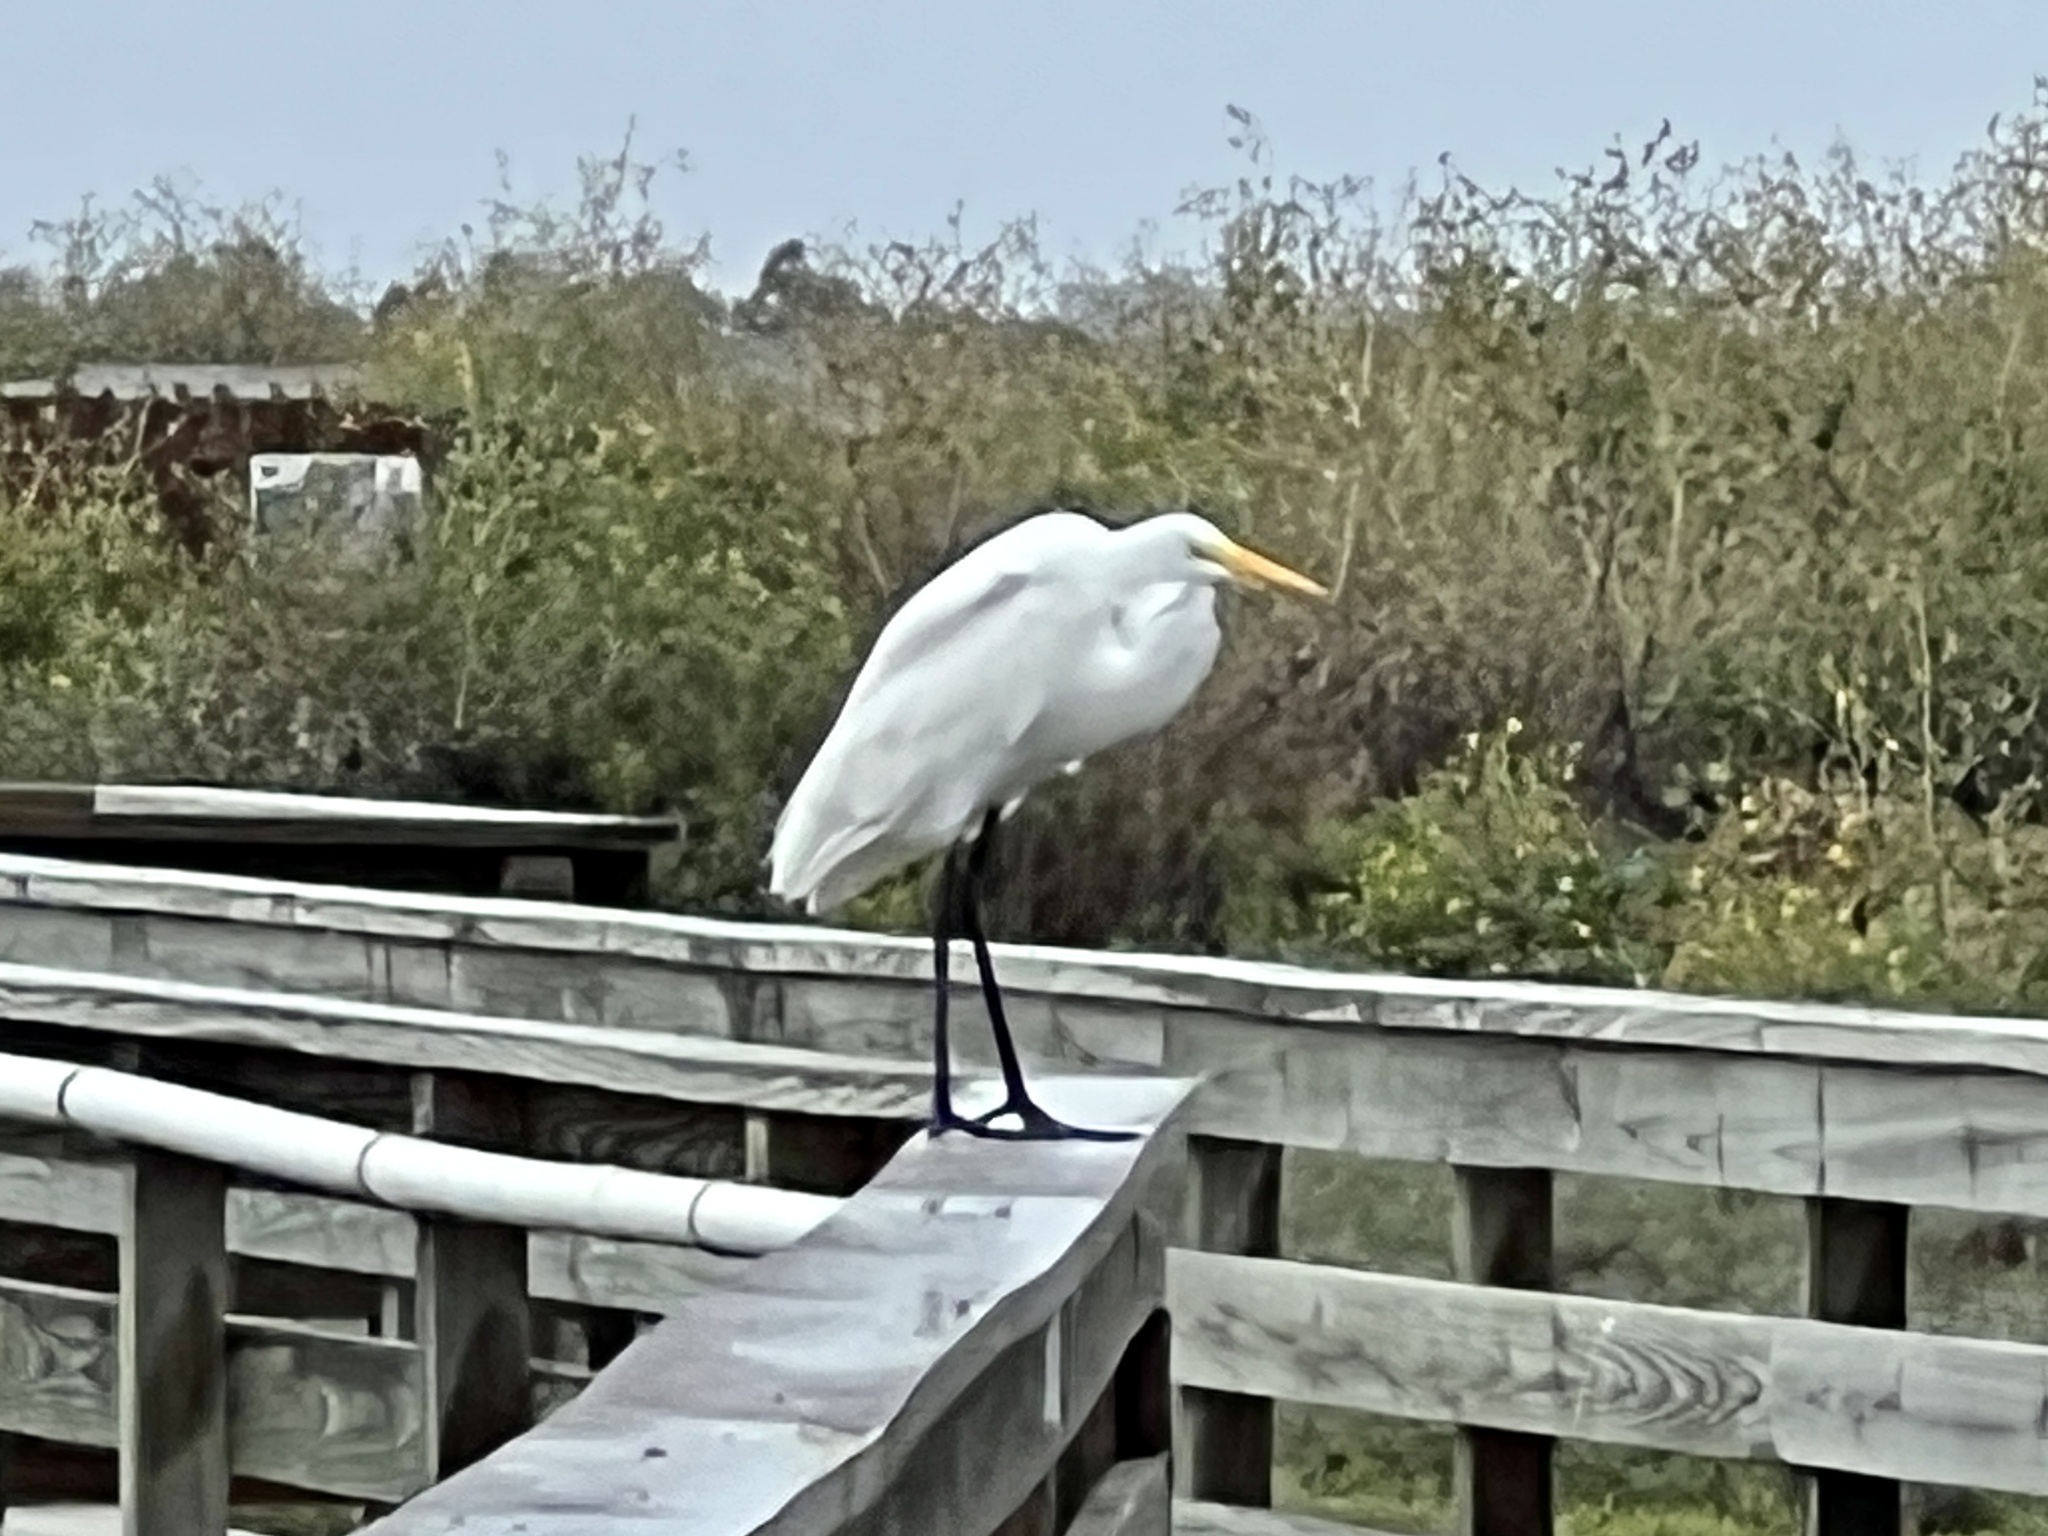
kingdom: Animalia
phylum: Chordata
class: Aves
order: Pelecaniformes
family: Ardeidae
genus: Ardea
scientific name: Ardea alba
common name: Great egret
